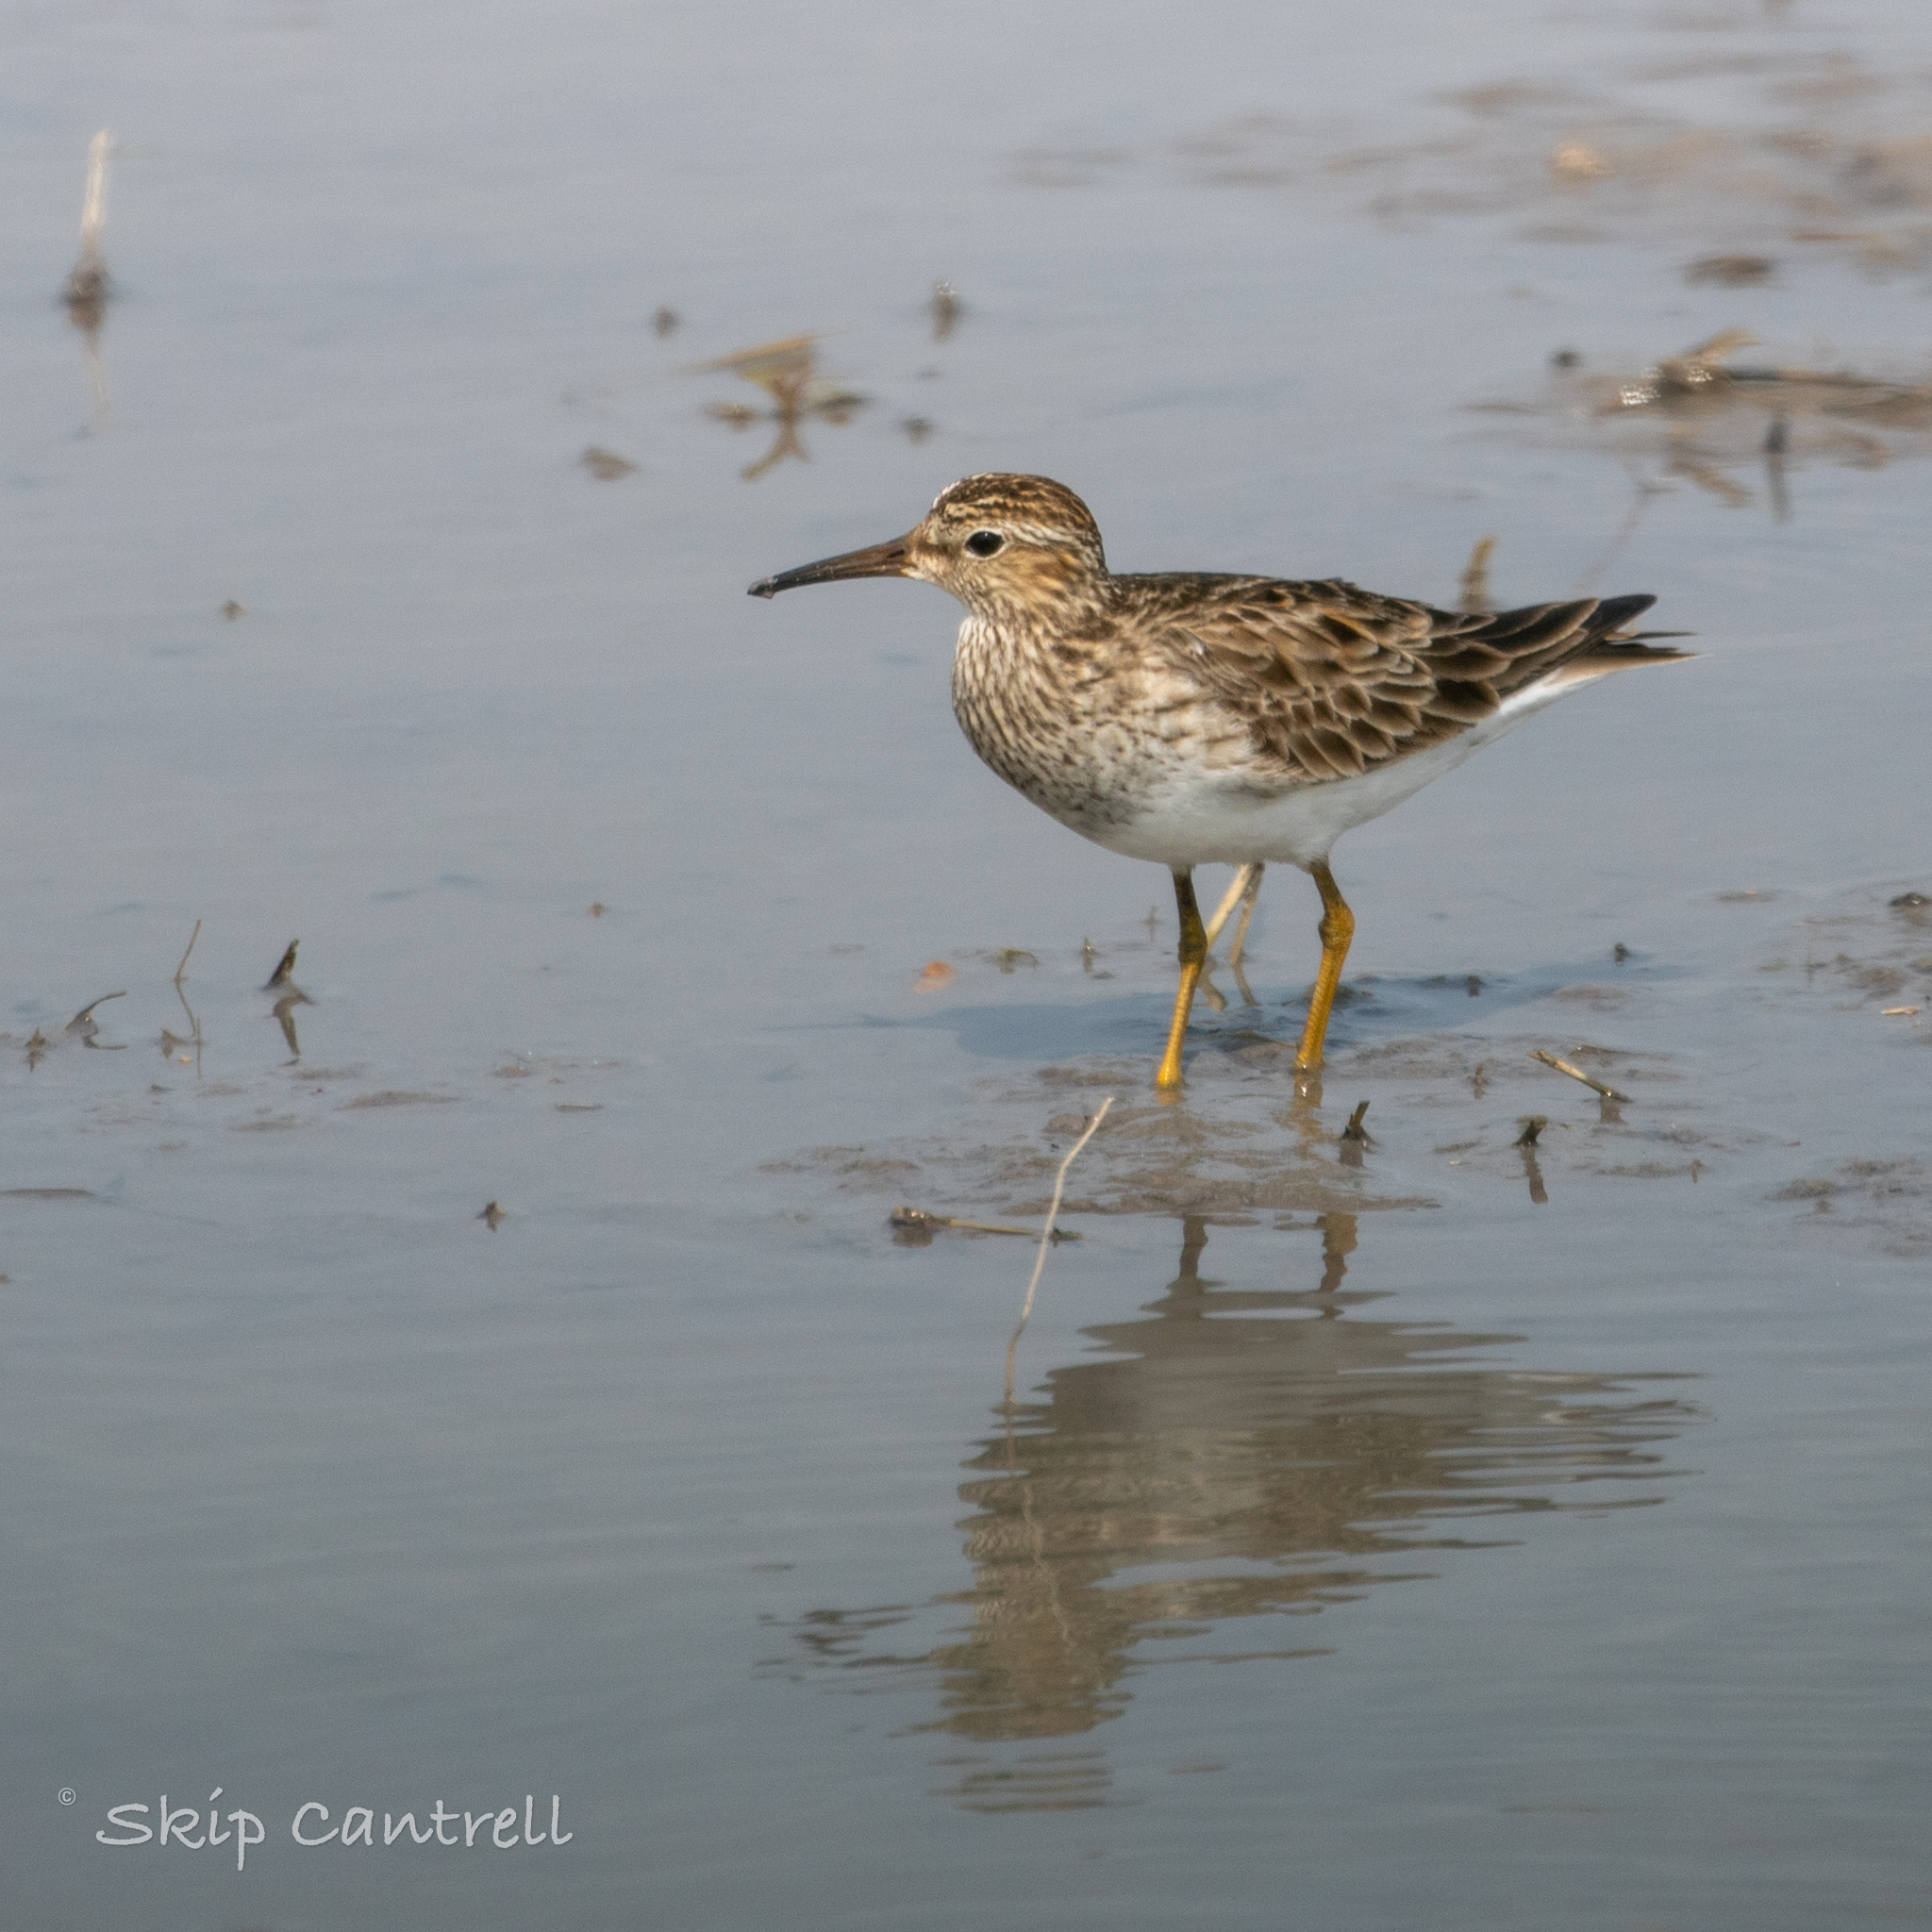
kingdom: Animalia
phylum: Chordata
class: Aves
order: Charadriiformes
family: Scolopacidae
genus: Calidris
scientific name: Calidris melanotos
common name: Pectoral sandpiper
